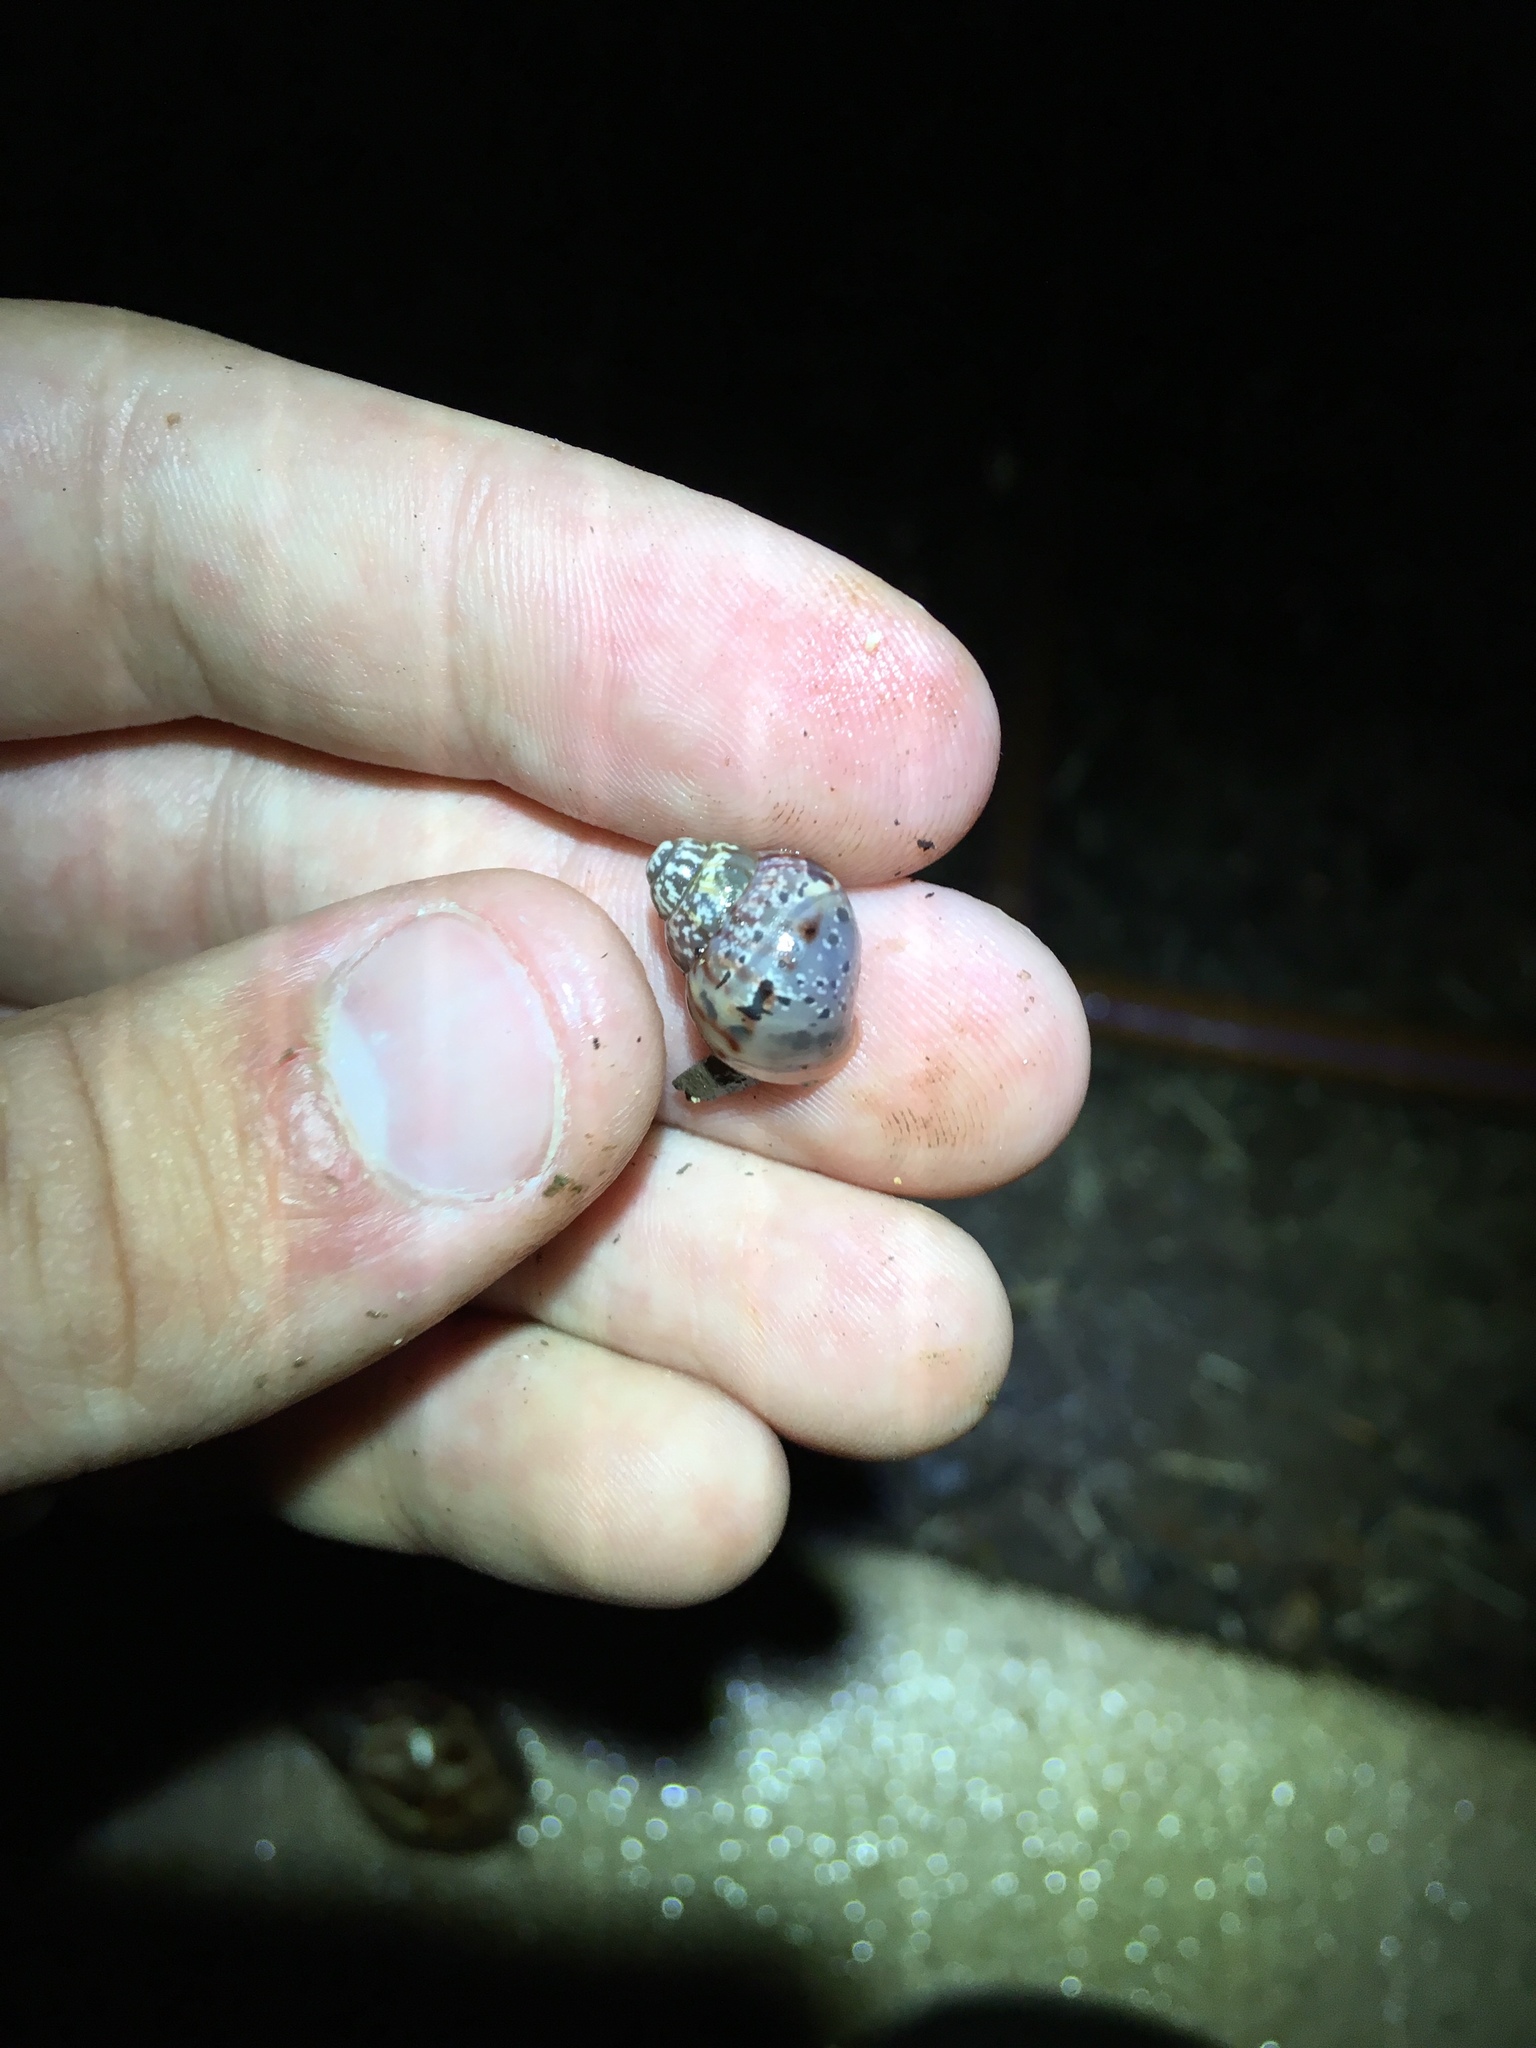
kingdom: Animalia
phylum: Mollusca
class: Gastropoda
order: Stylommatophora
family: Achatinidae
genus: Lissachatina
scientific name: Lissachatina fulica
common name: Giant african snail
